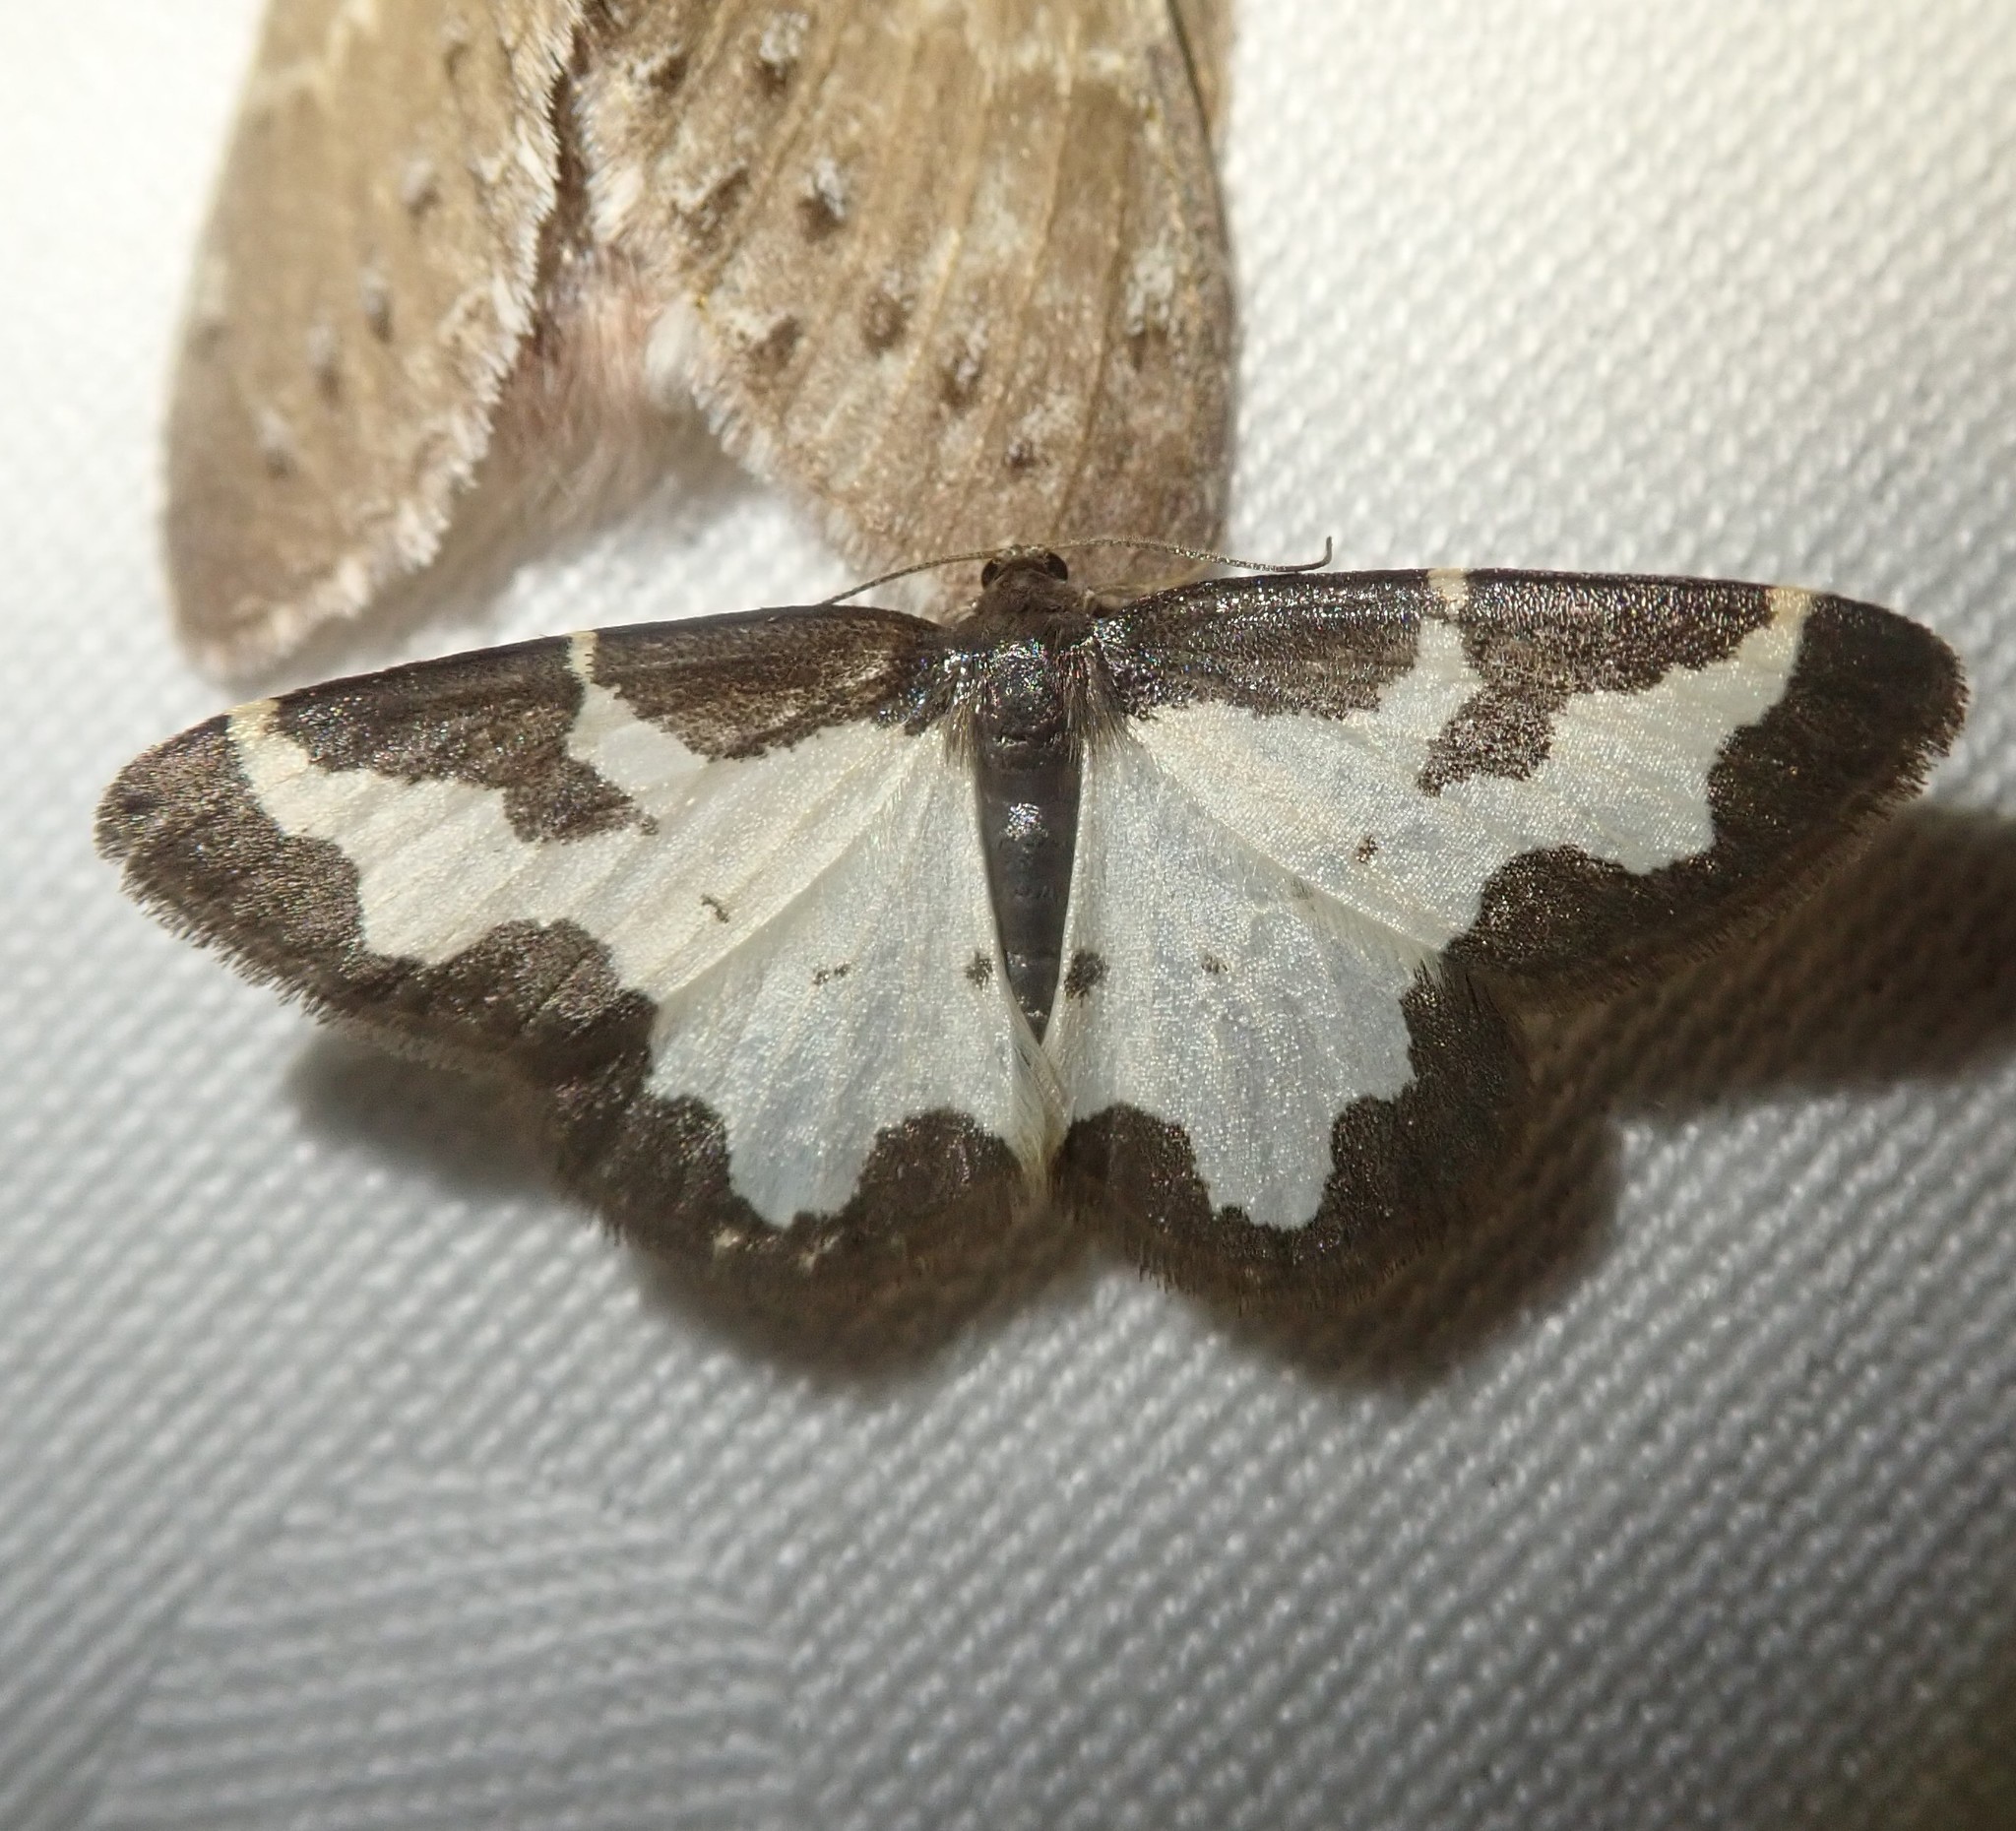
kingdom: Animalia
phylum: Arthropoda
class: Insecta
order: Lepidoptera
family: Geometridae
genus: Lomaspilis
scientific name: Lomaspilis marginata
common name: Clouded border
